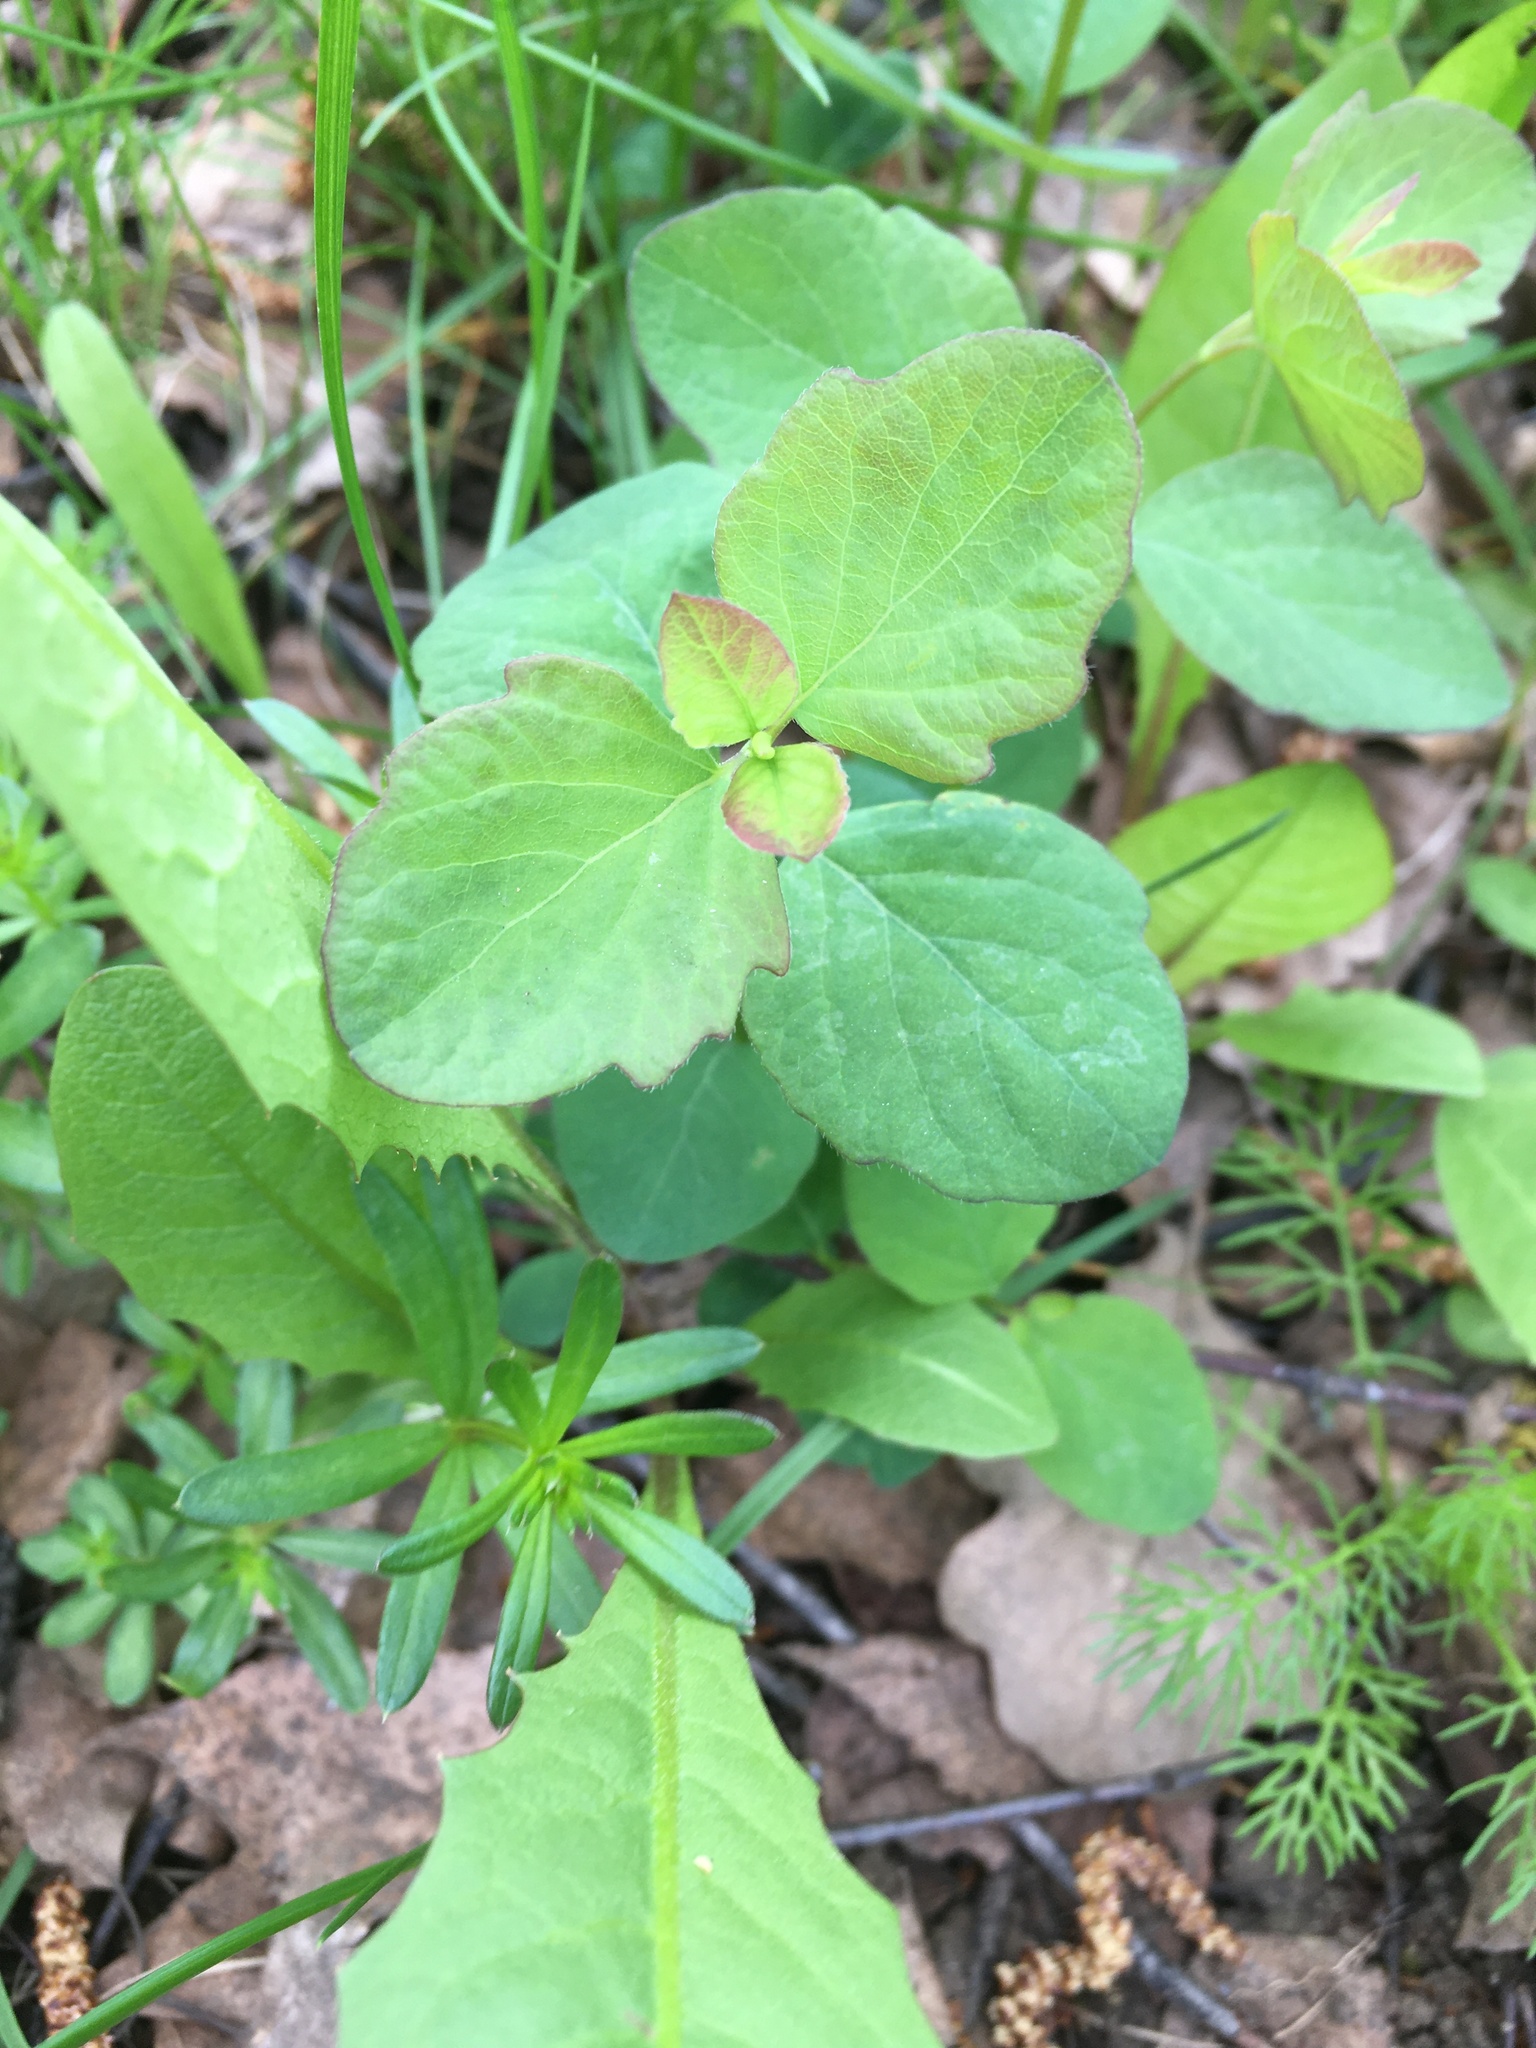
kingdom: Plantae
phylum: Tracheophyta
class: Magnoliopsida
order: Dipsacales
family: Caprifoliaceae
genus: Symphoricarpos
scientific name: Symphoricarpos albus
